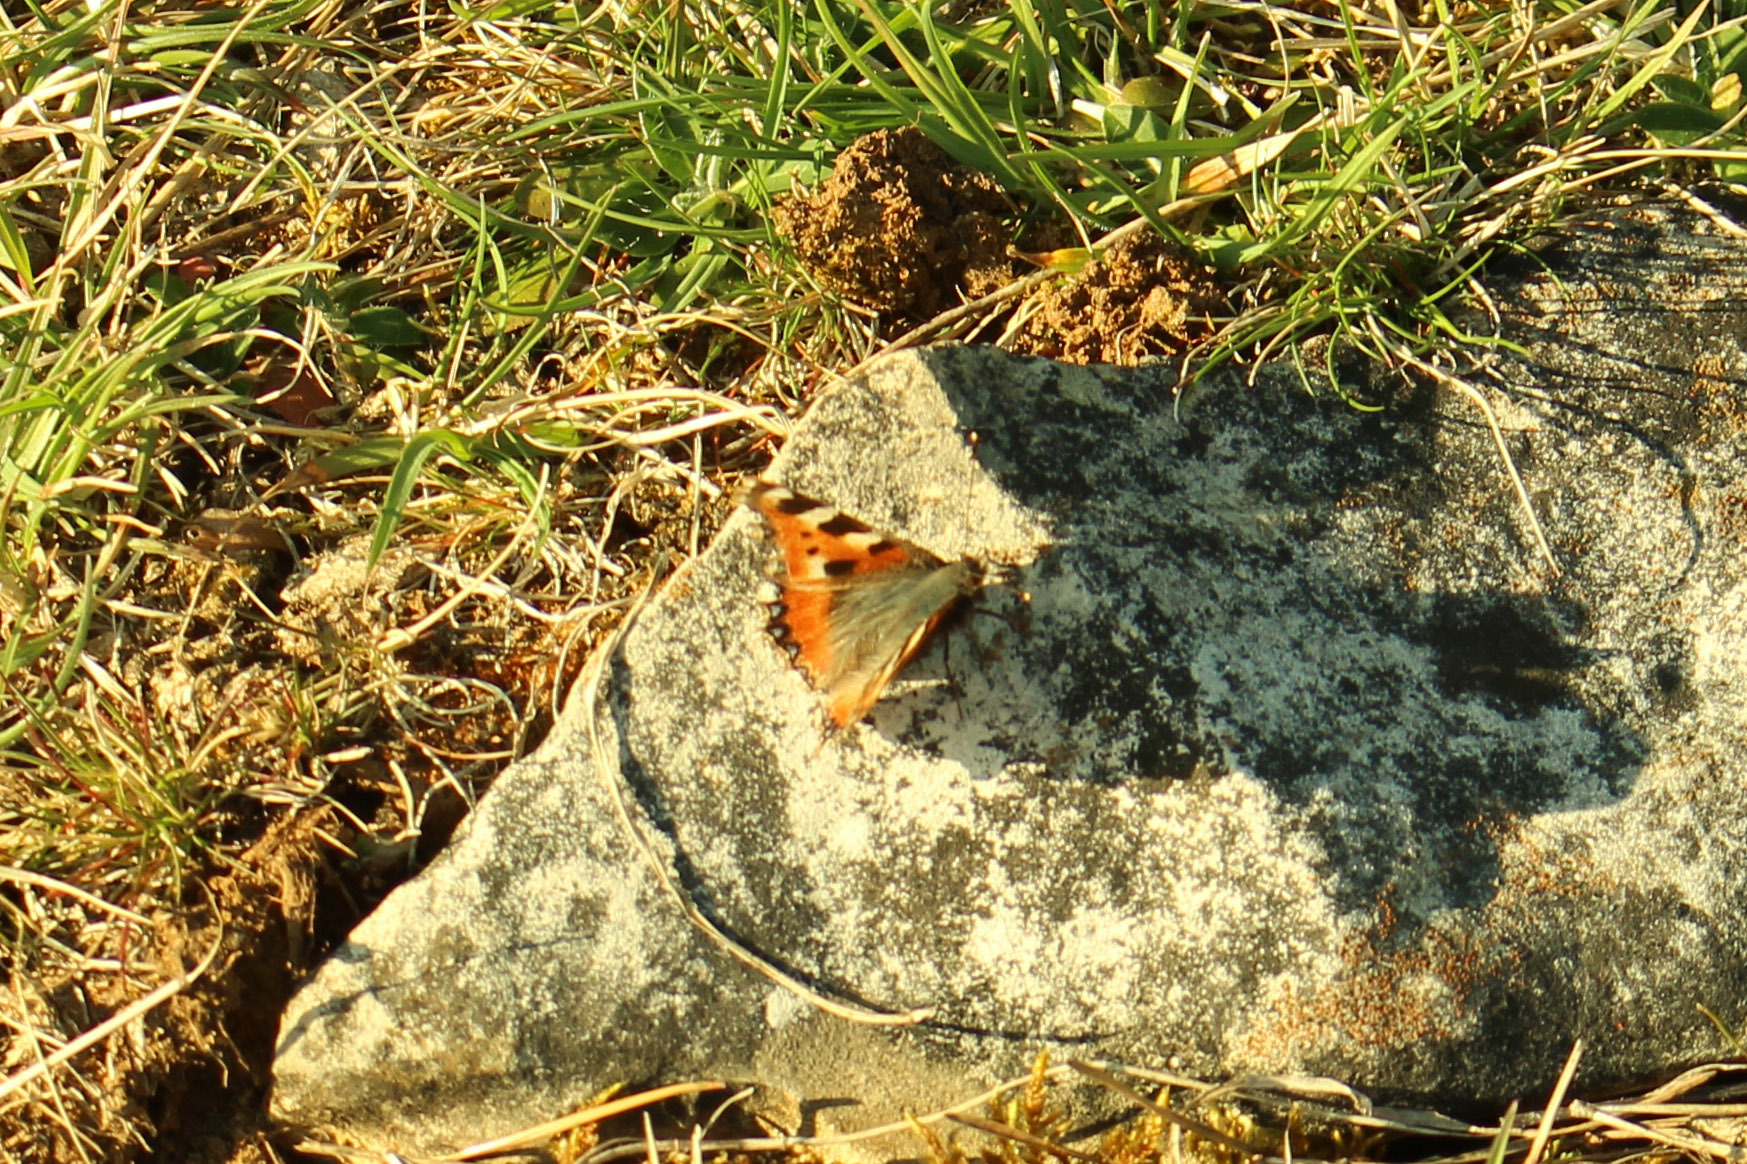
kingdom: Animalia
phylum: Arthropoda
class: Insecta
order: Lepidoptera
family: Nymphalidae
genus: Aglais
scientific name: Aglais urticae
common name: Small tortoiseshell
